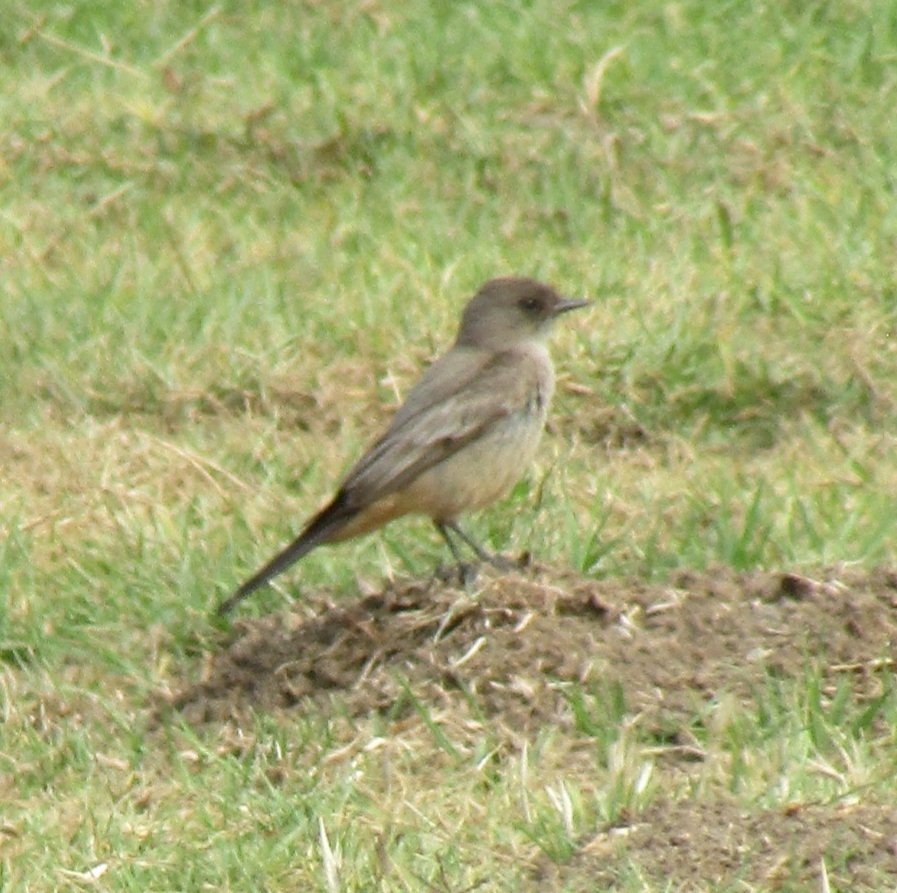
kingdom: Animalia
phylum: Chordata
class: Aves
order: Passeriformes
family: Tyrannidae
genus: Sayornis
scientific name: Sayornis saya
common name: Say's phoebe
